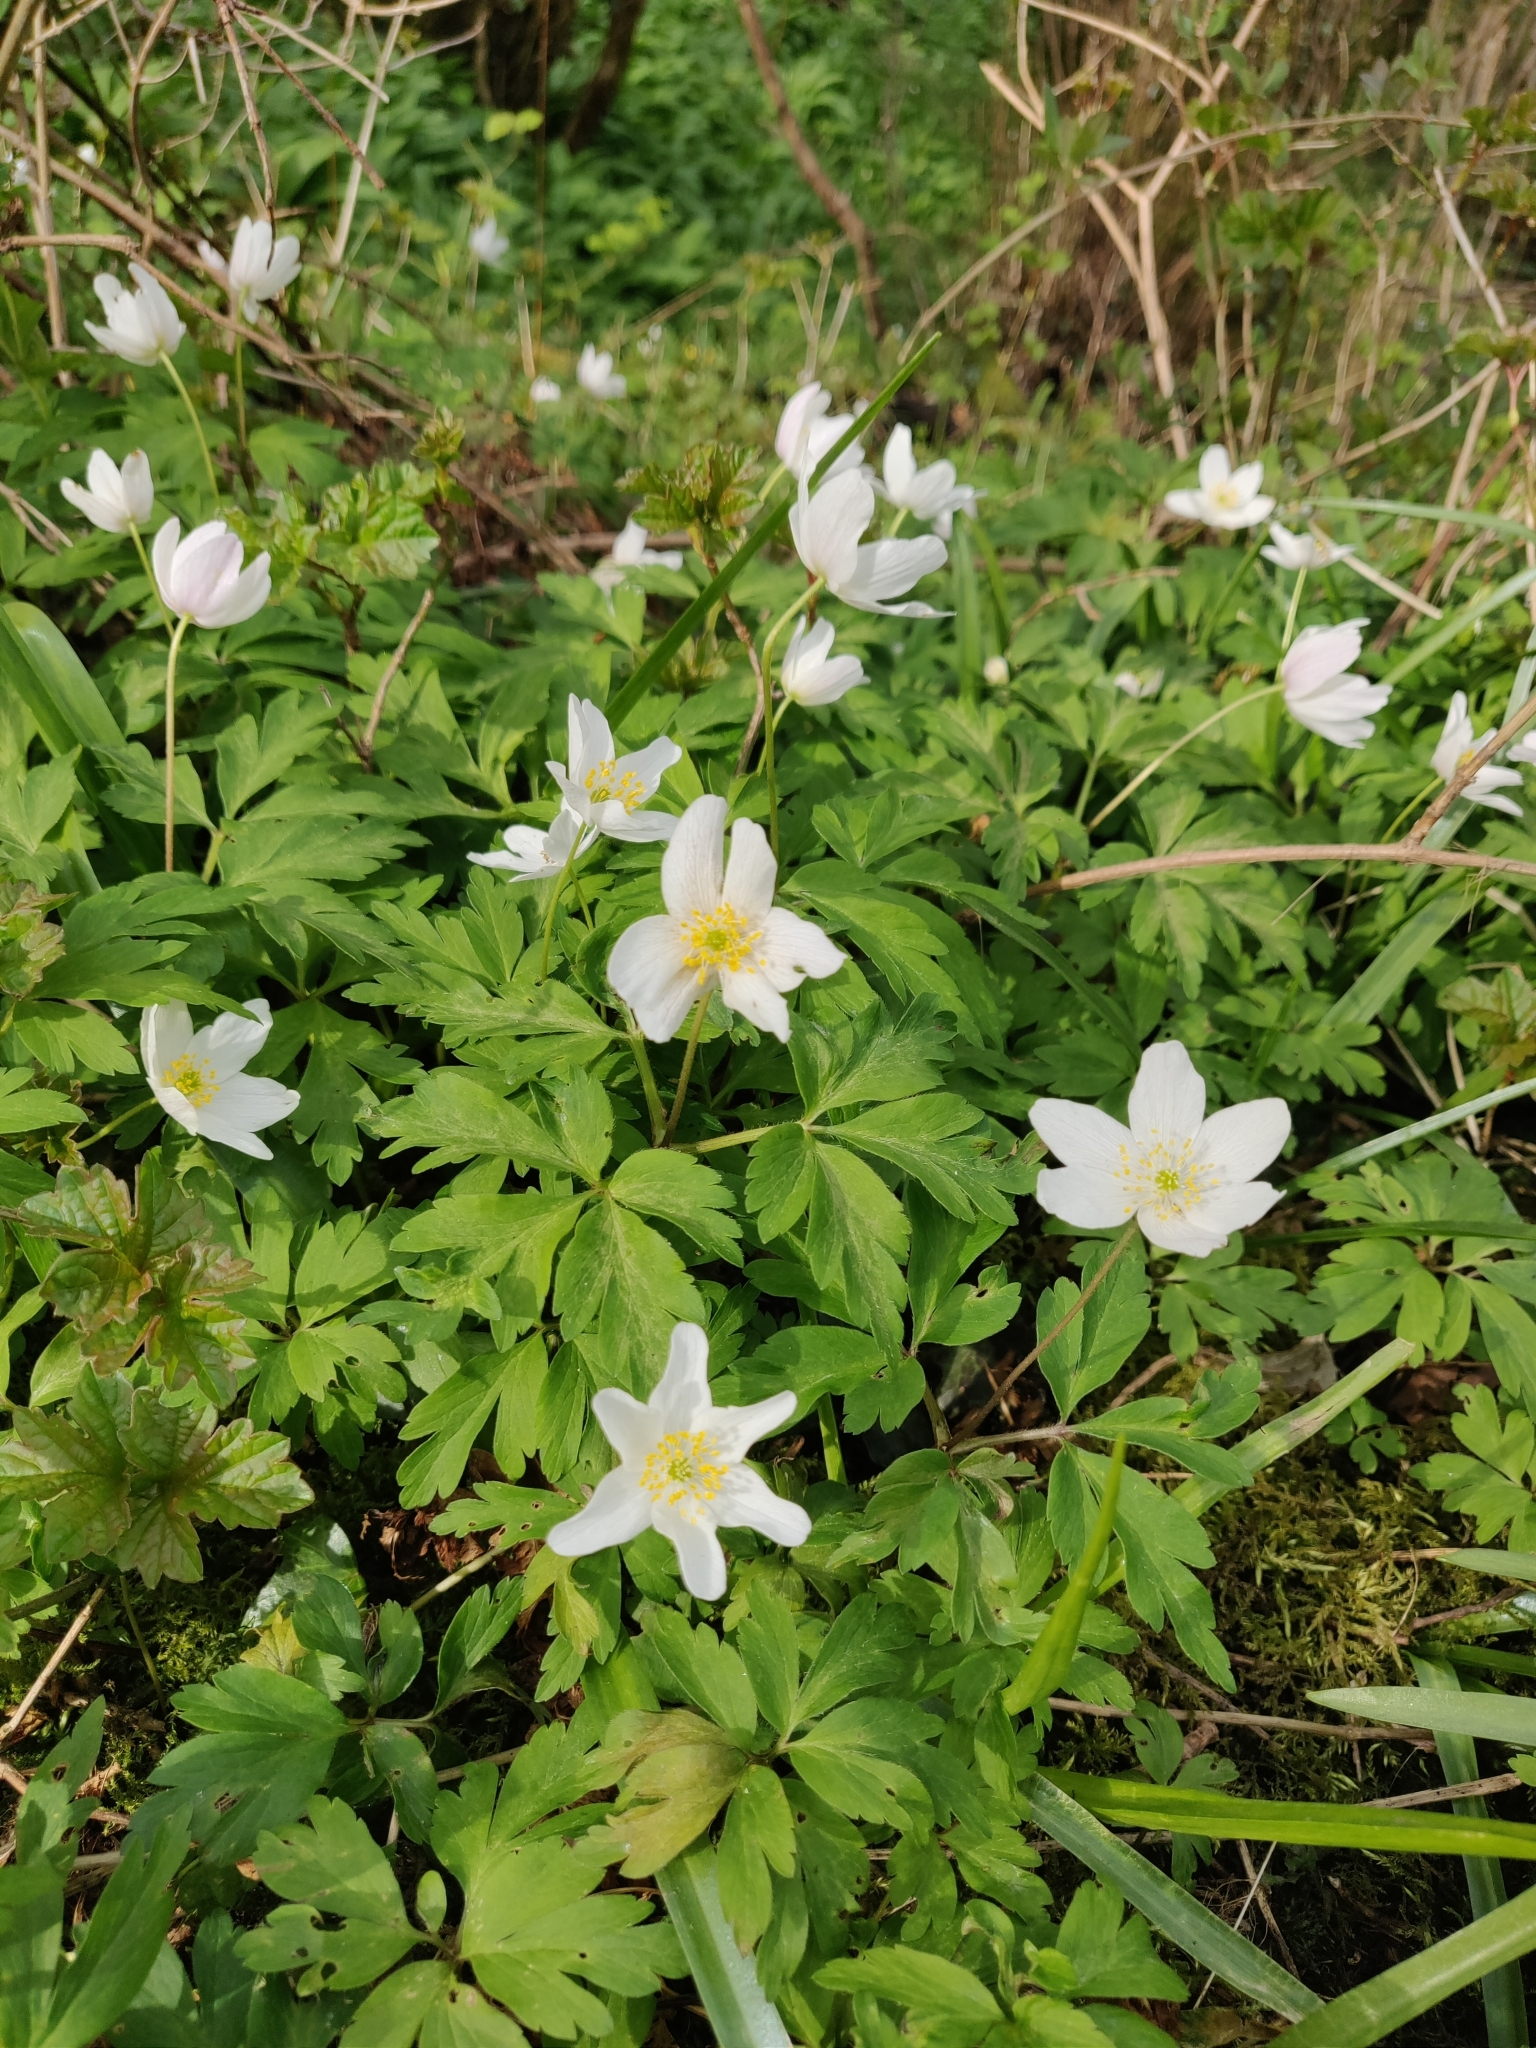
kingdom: Plantae
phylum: Tracheophyta
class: Magnoliopsida
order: Ranunculales
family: Ranunculaceae
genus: Anemone
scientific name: Anemone nemorosa
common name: Wood anemone
